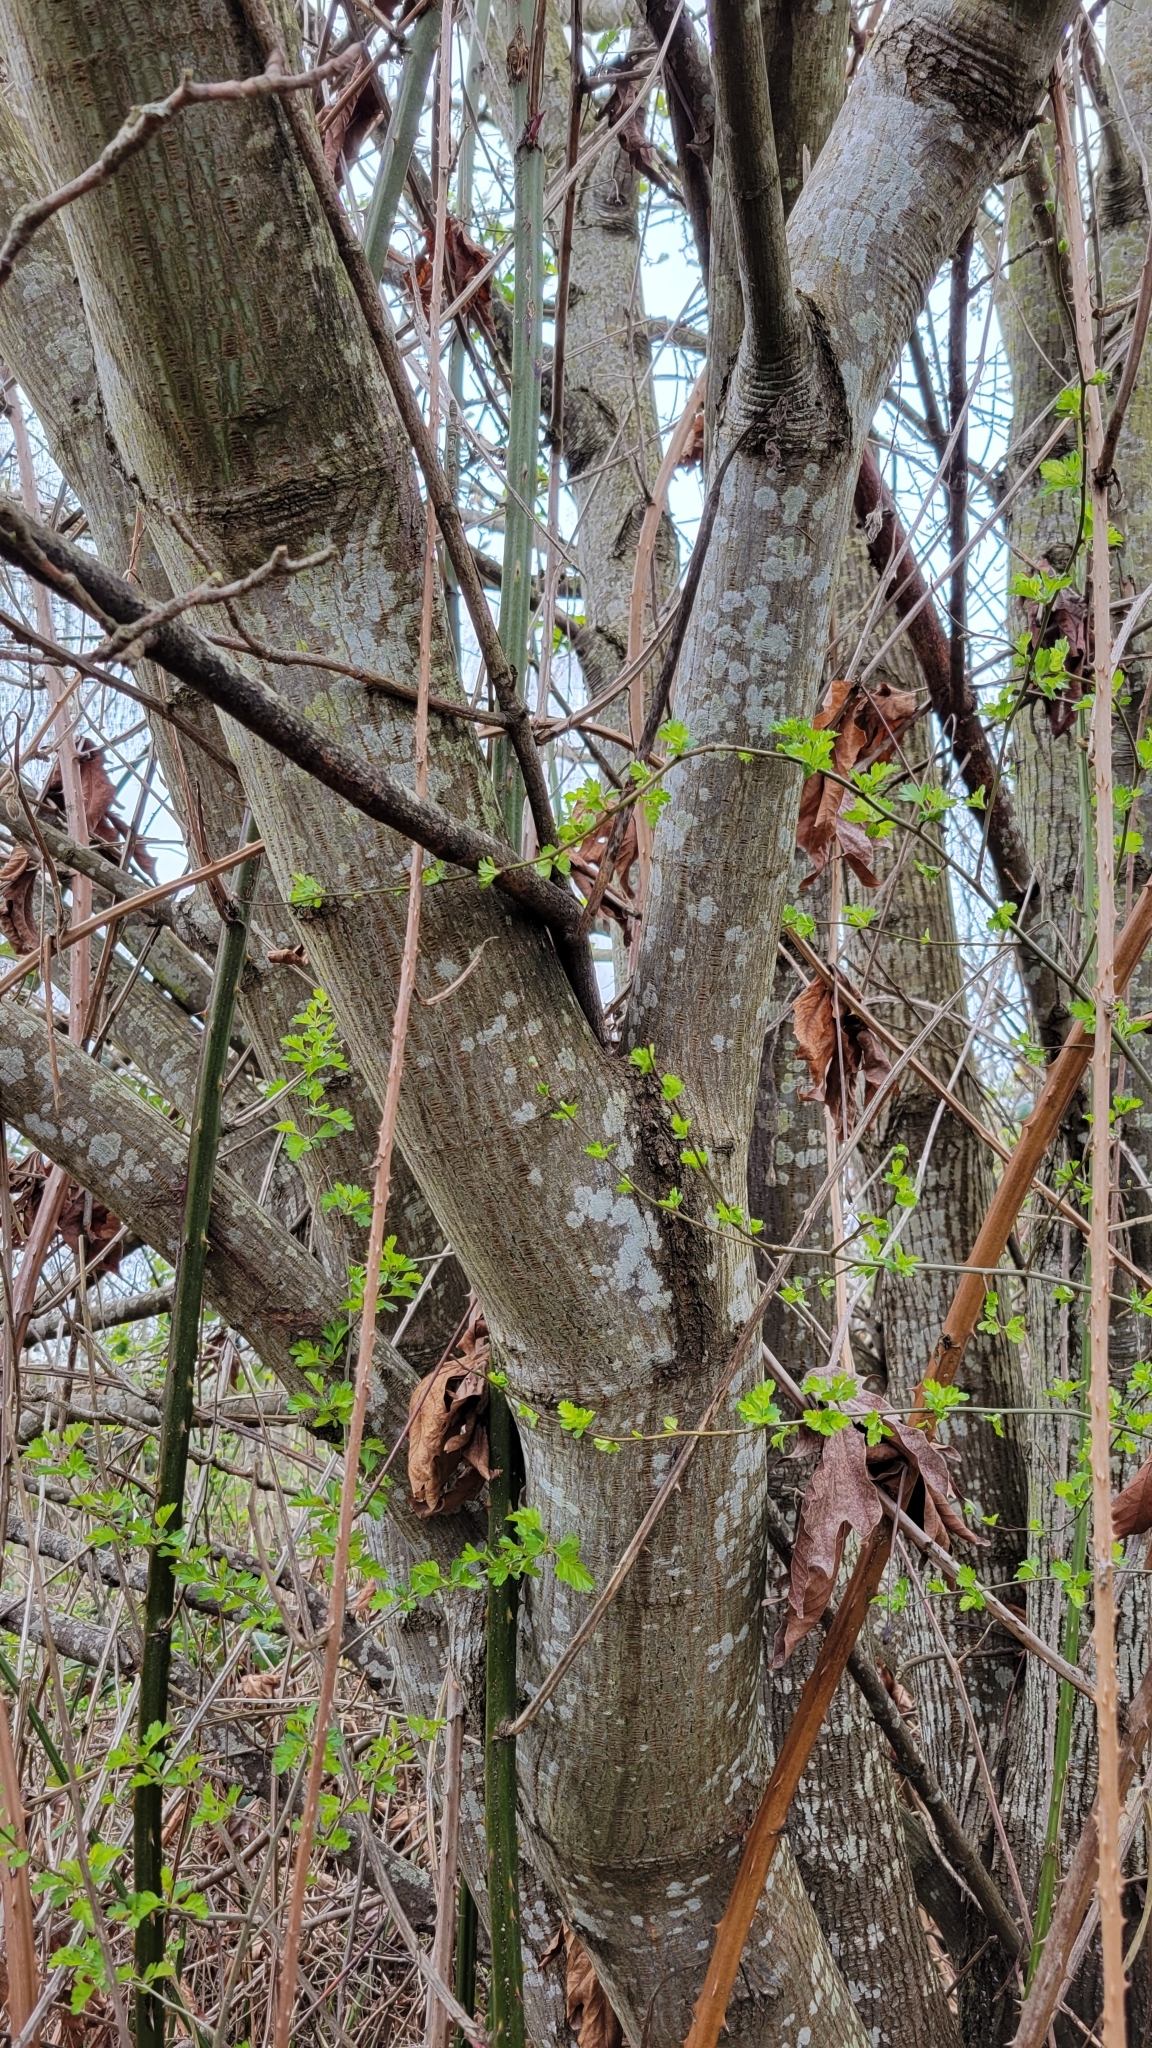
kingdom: Plantae
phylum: Tracheophyta
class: Magnoliopsida
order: Sapindales
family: Sapindaceae
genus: Acer
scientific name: Acer macrophyllum
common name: Oregon maple
